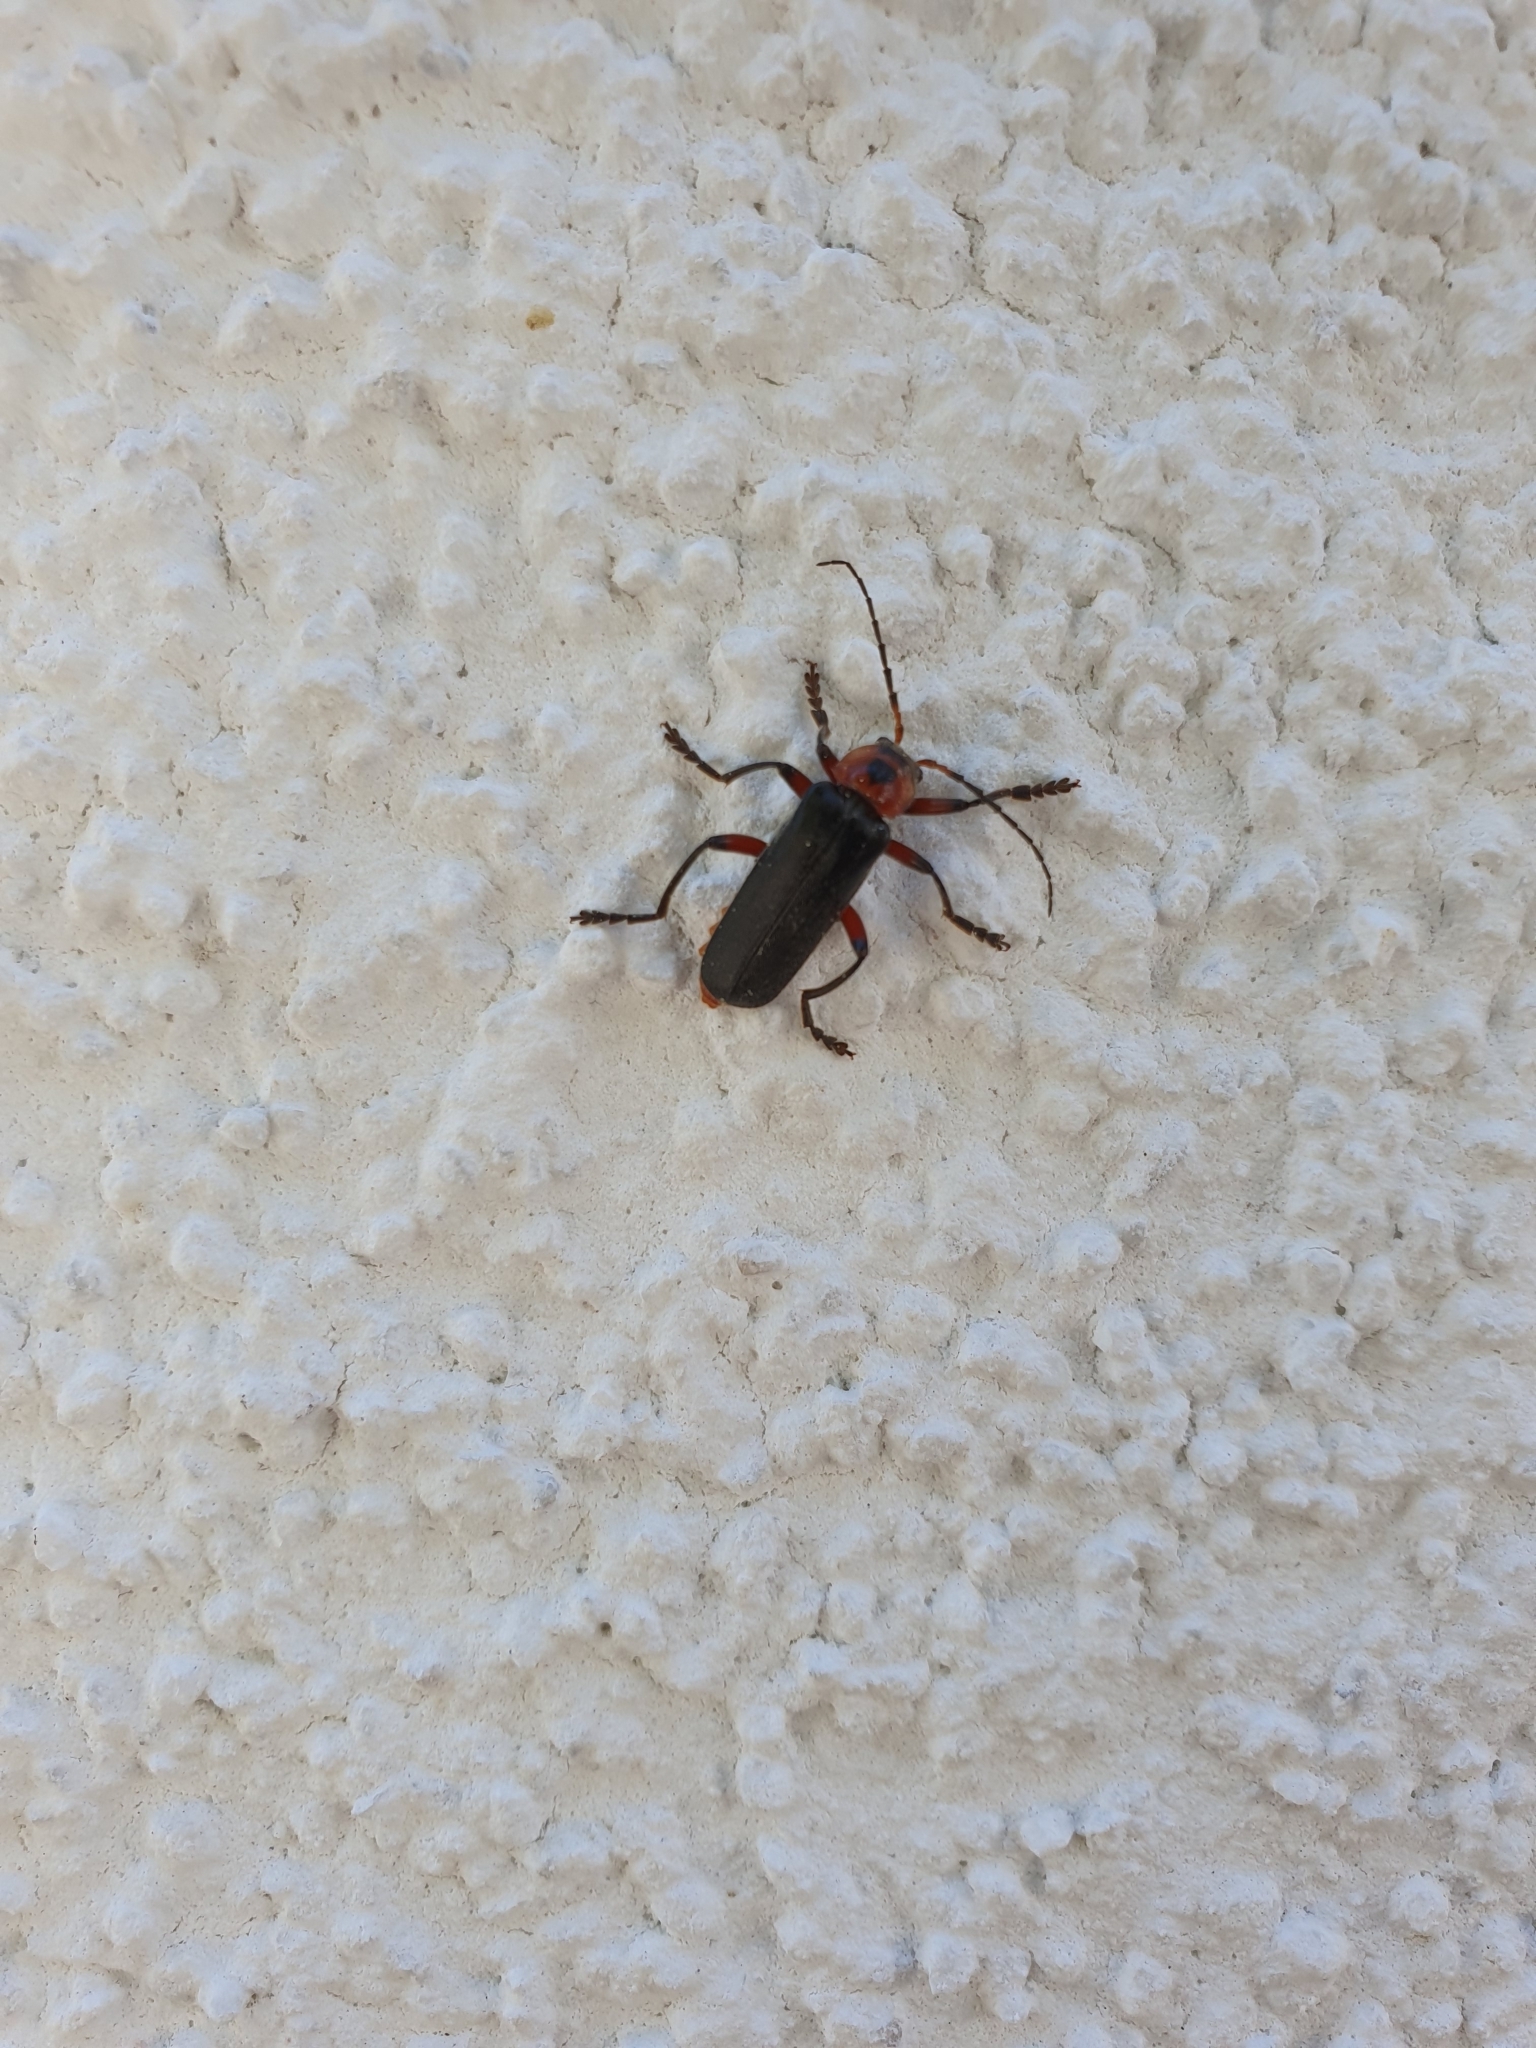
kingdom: Animalia
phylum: Arthropoda
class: Insecta
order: Coleoptera
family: Cantharidae
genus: Cantharis
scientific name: Cantharis rustica
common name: Soldier beetle
